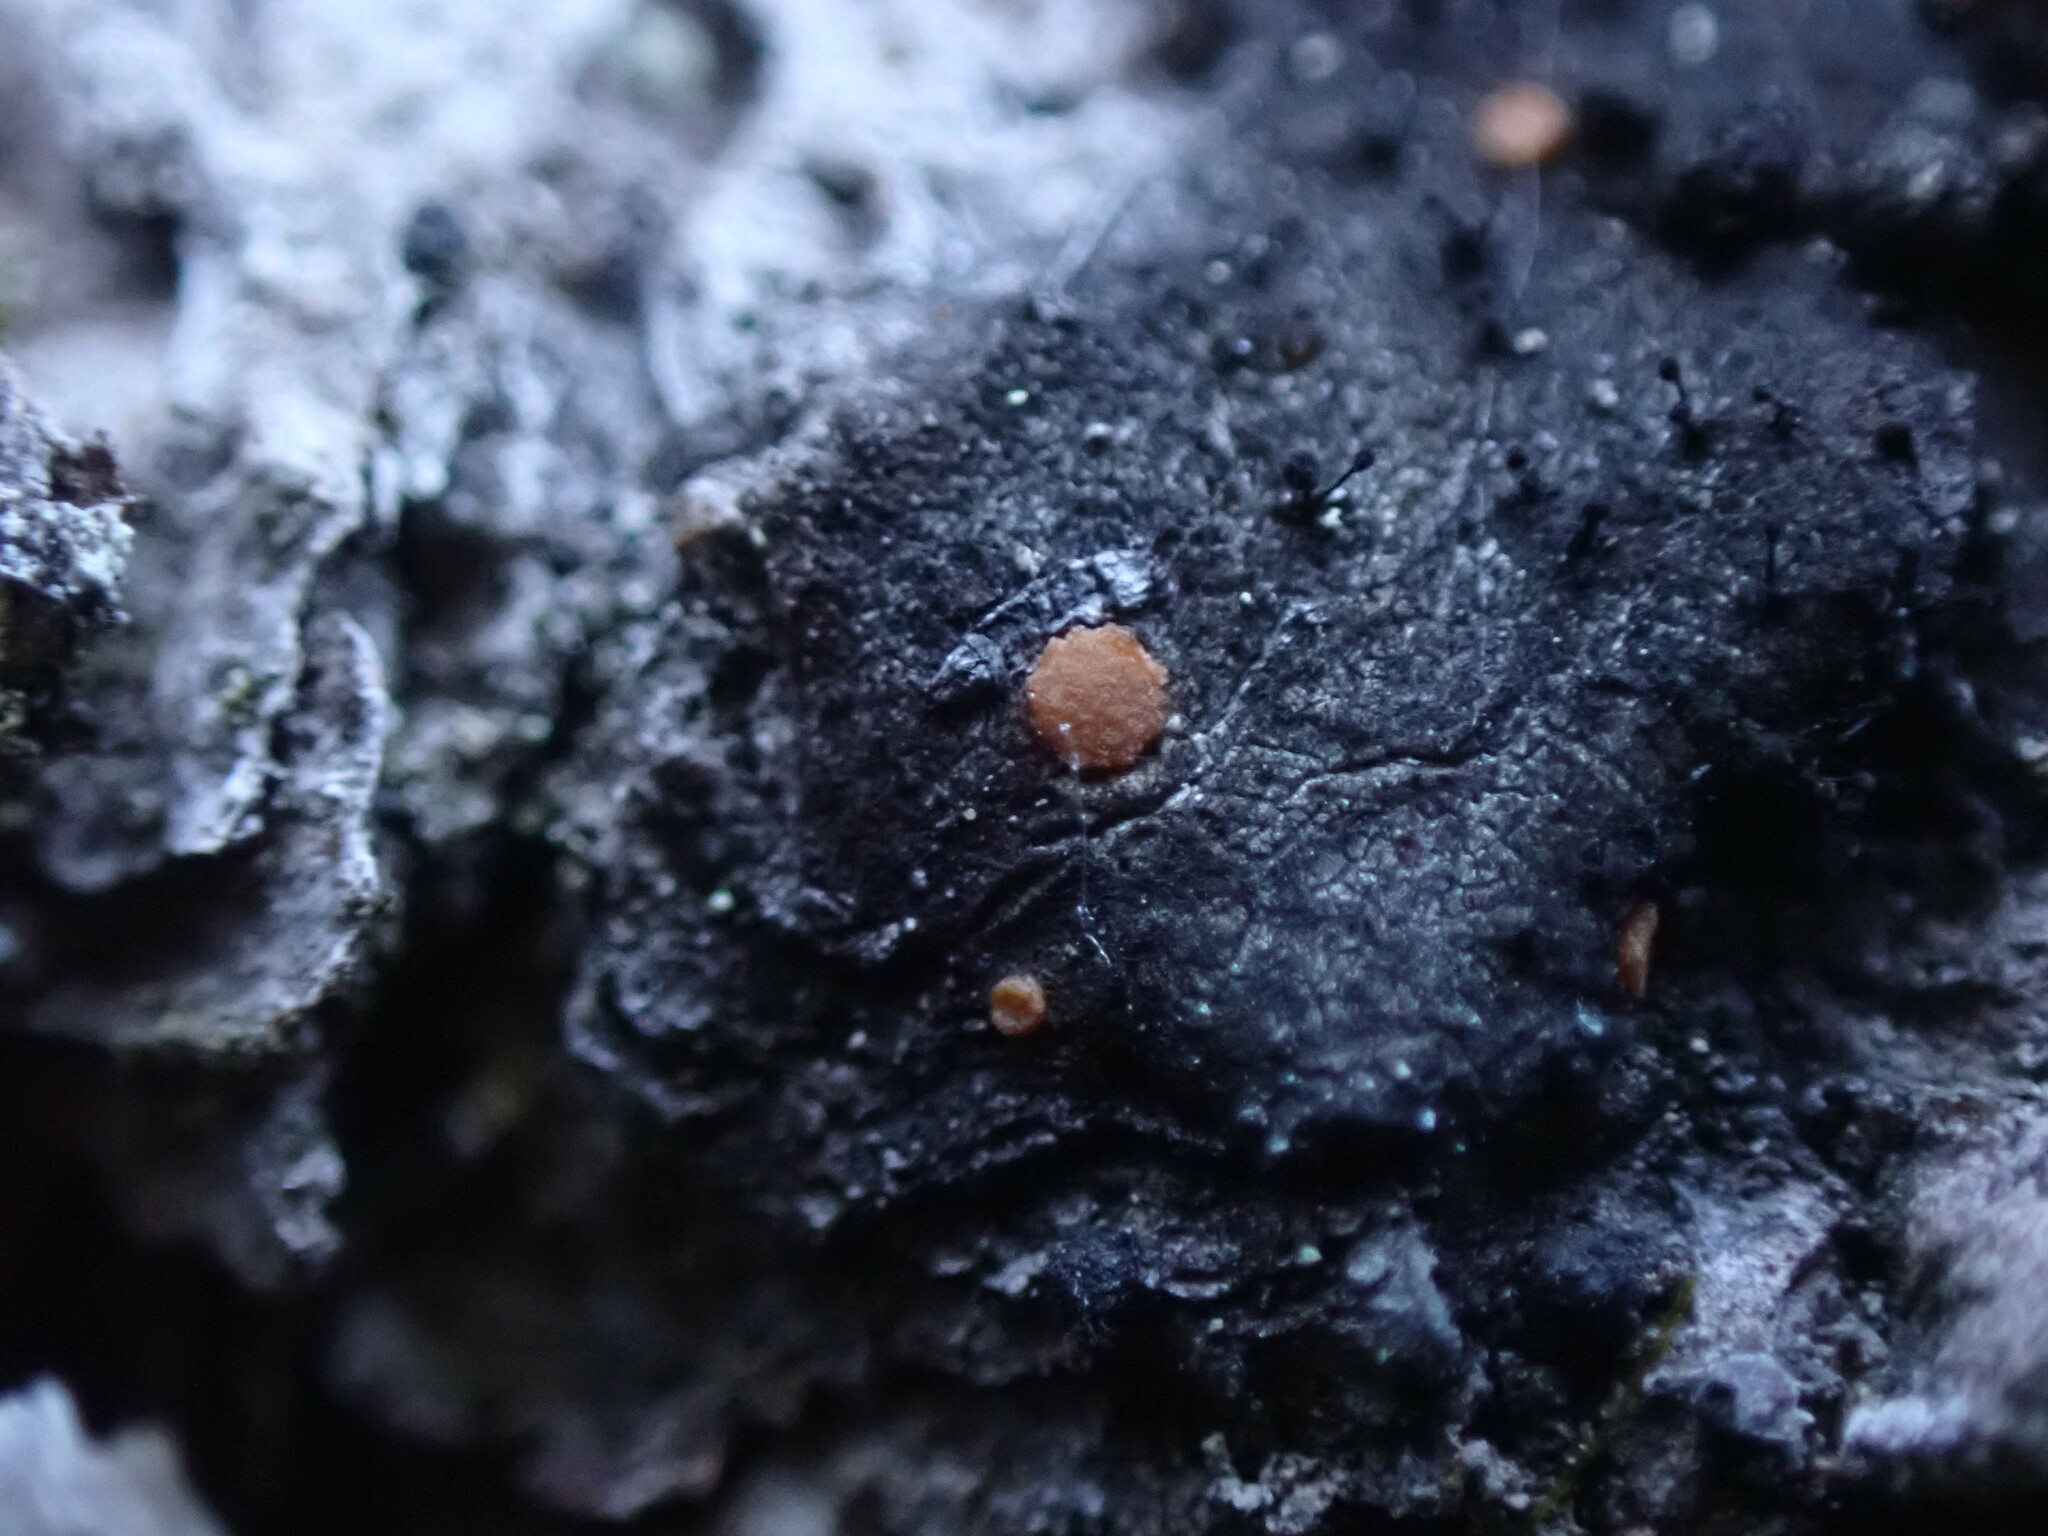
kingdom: Fungi
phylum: Ascomycota
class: Sareomycetes
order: Sareales
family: Sareaceae
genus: Sarea
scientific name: Sarea resinae
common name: Sarea lichen
